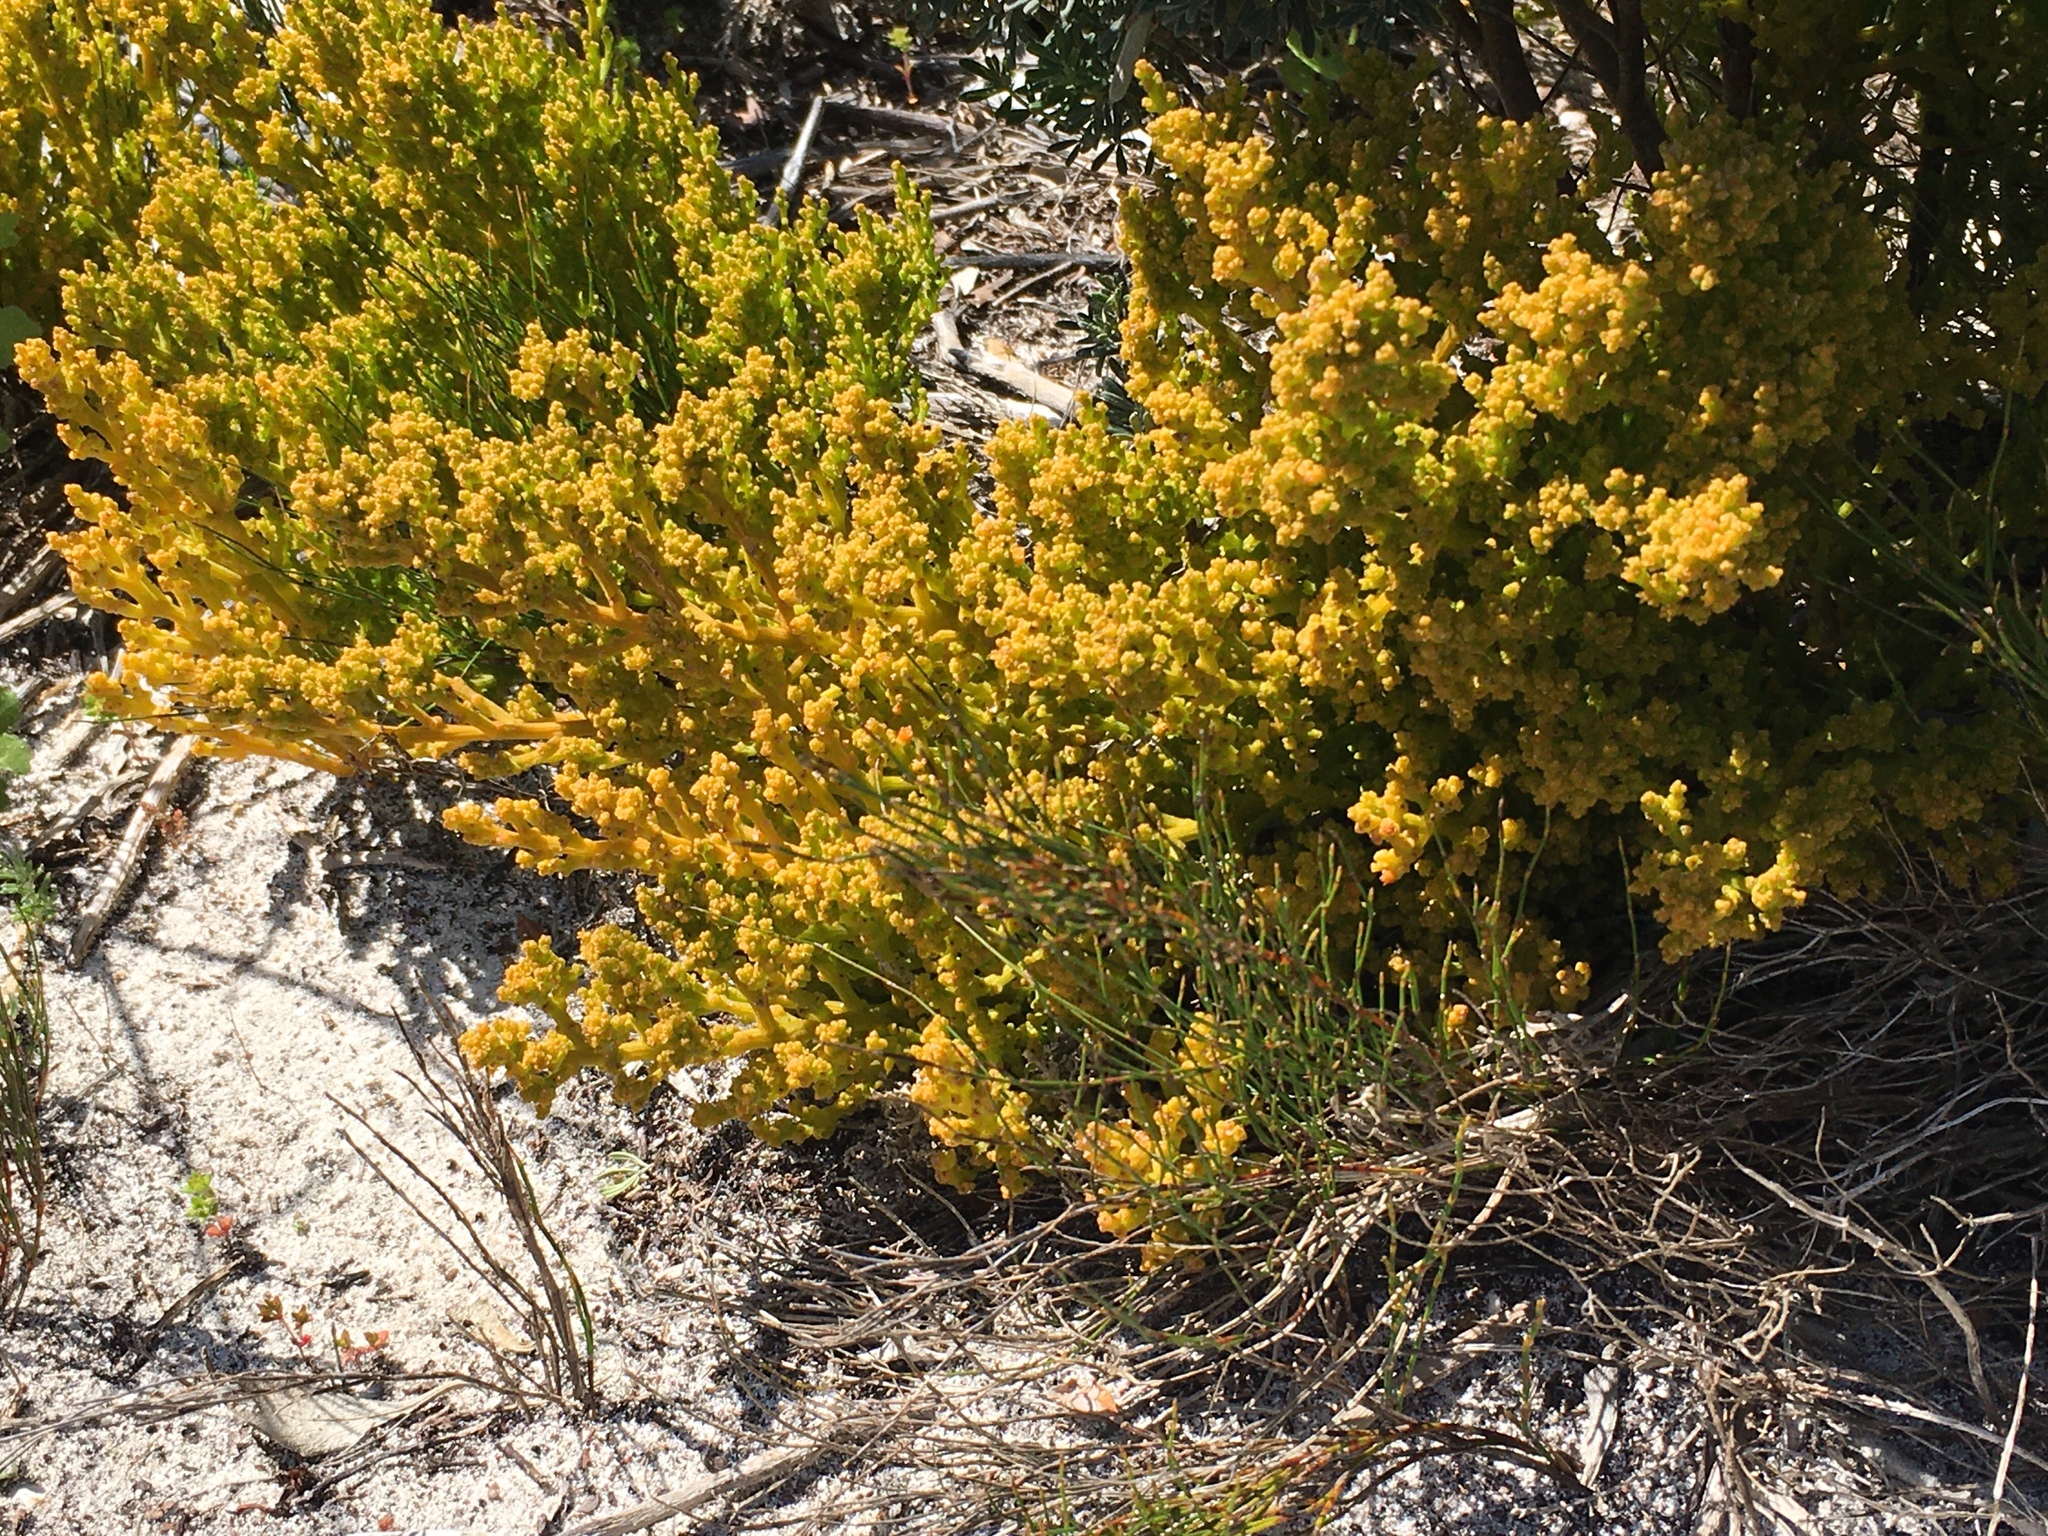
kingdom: Plantae
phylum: Tracheophyta
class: Magnoliopsida
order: Santalales
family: Thesiaceae
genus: Thesium
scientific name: Thesium fragile
